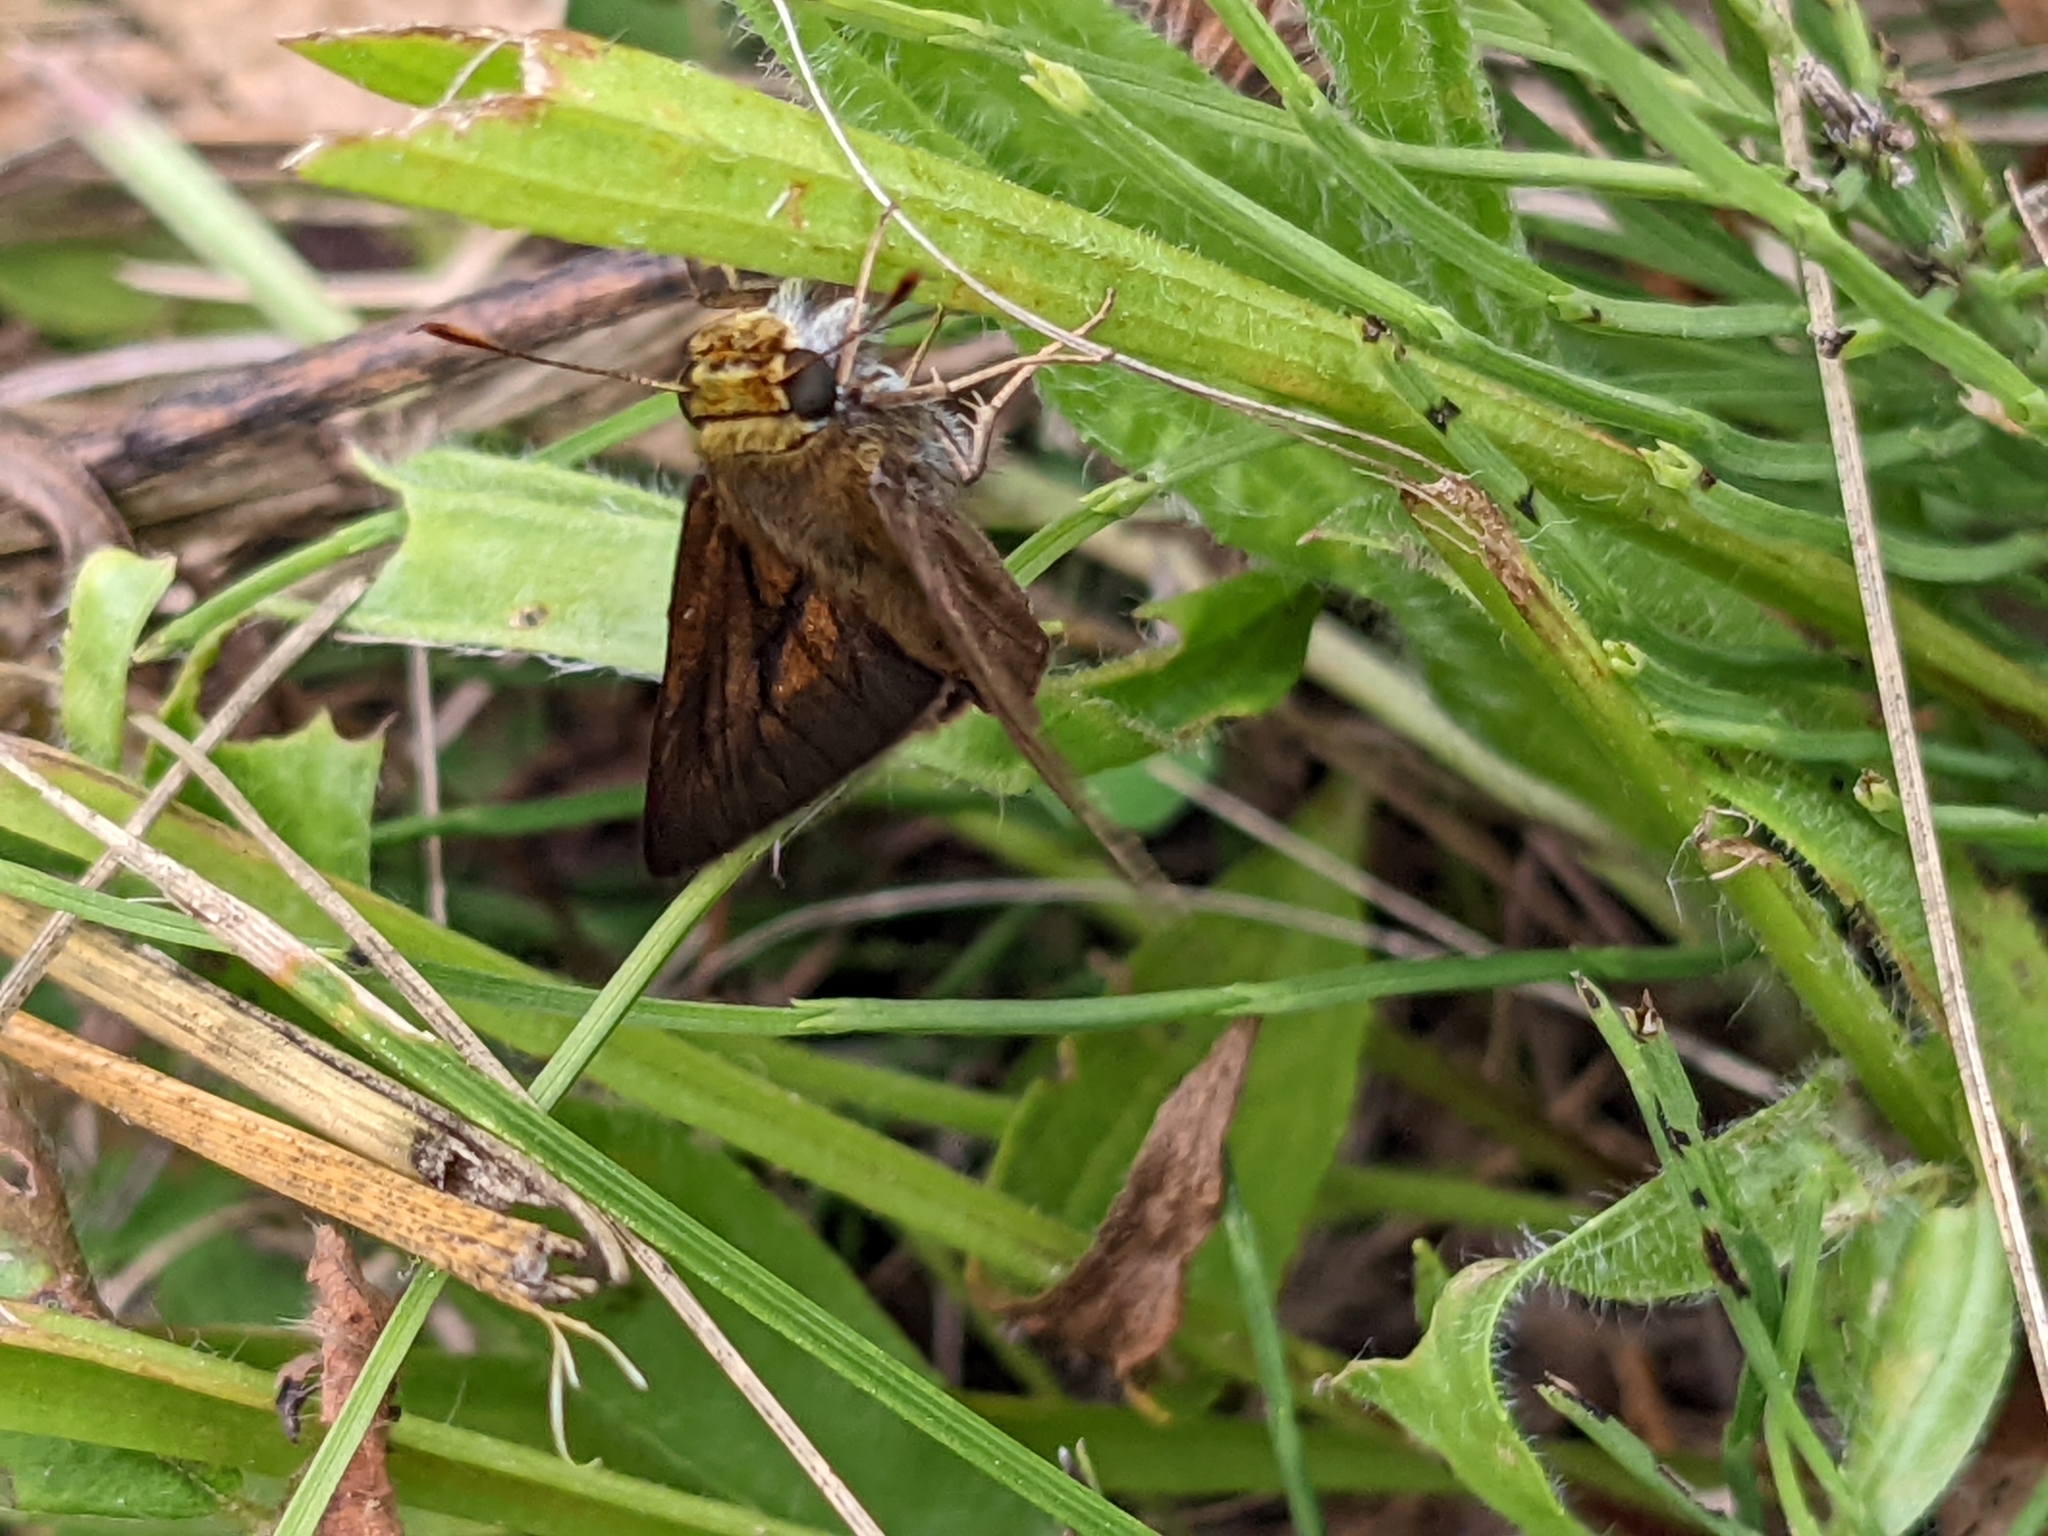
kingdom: Animalia
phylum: Arthropoda
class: Insecta
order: Lepidoptera
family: Hesperiidae
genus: Euphyes
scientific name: Euphyes vestris
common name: Dun skipper
